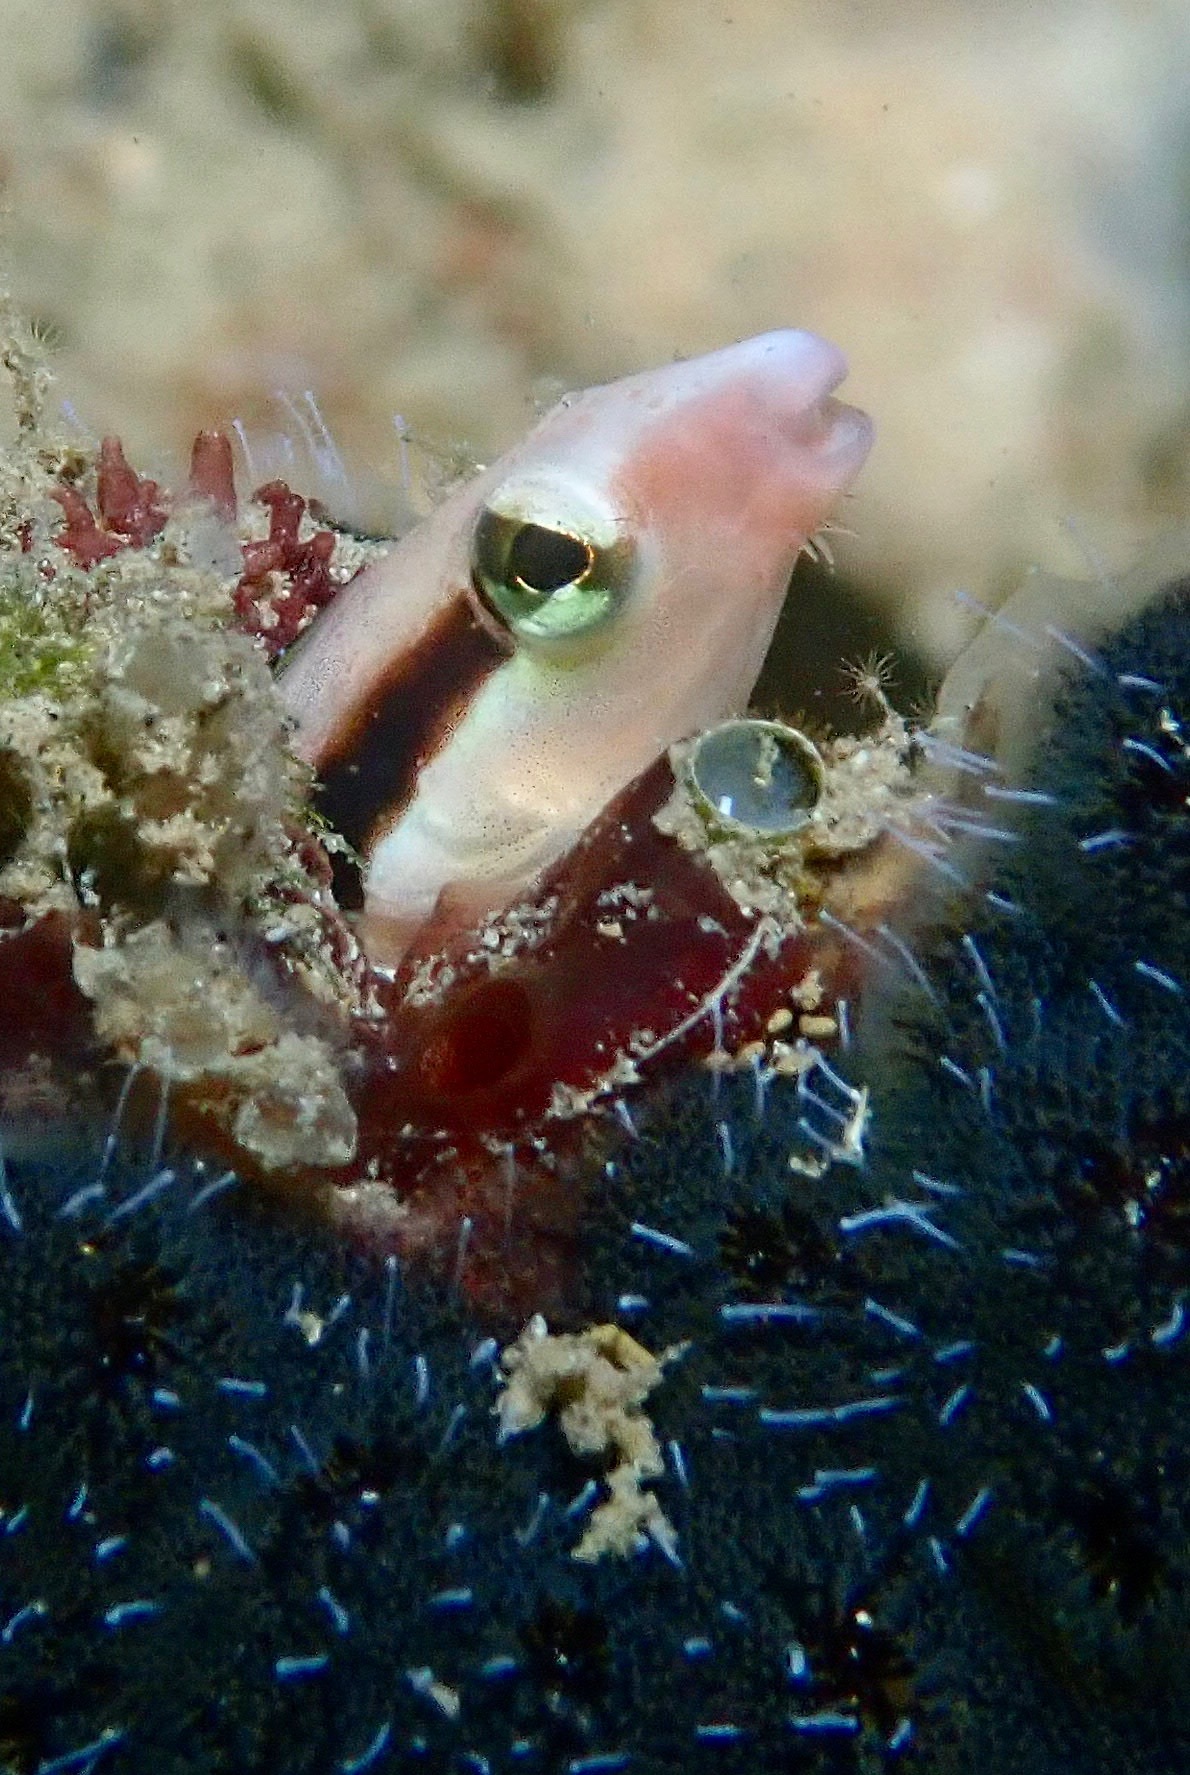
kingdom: Animalia
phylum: Chordata
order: Perciformes
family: Blenniidae
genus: Aspidontus
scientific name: Aspidontus dussumieri
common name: Lance blenny
